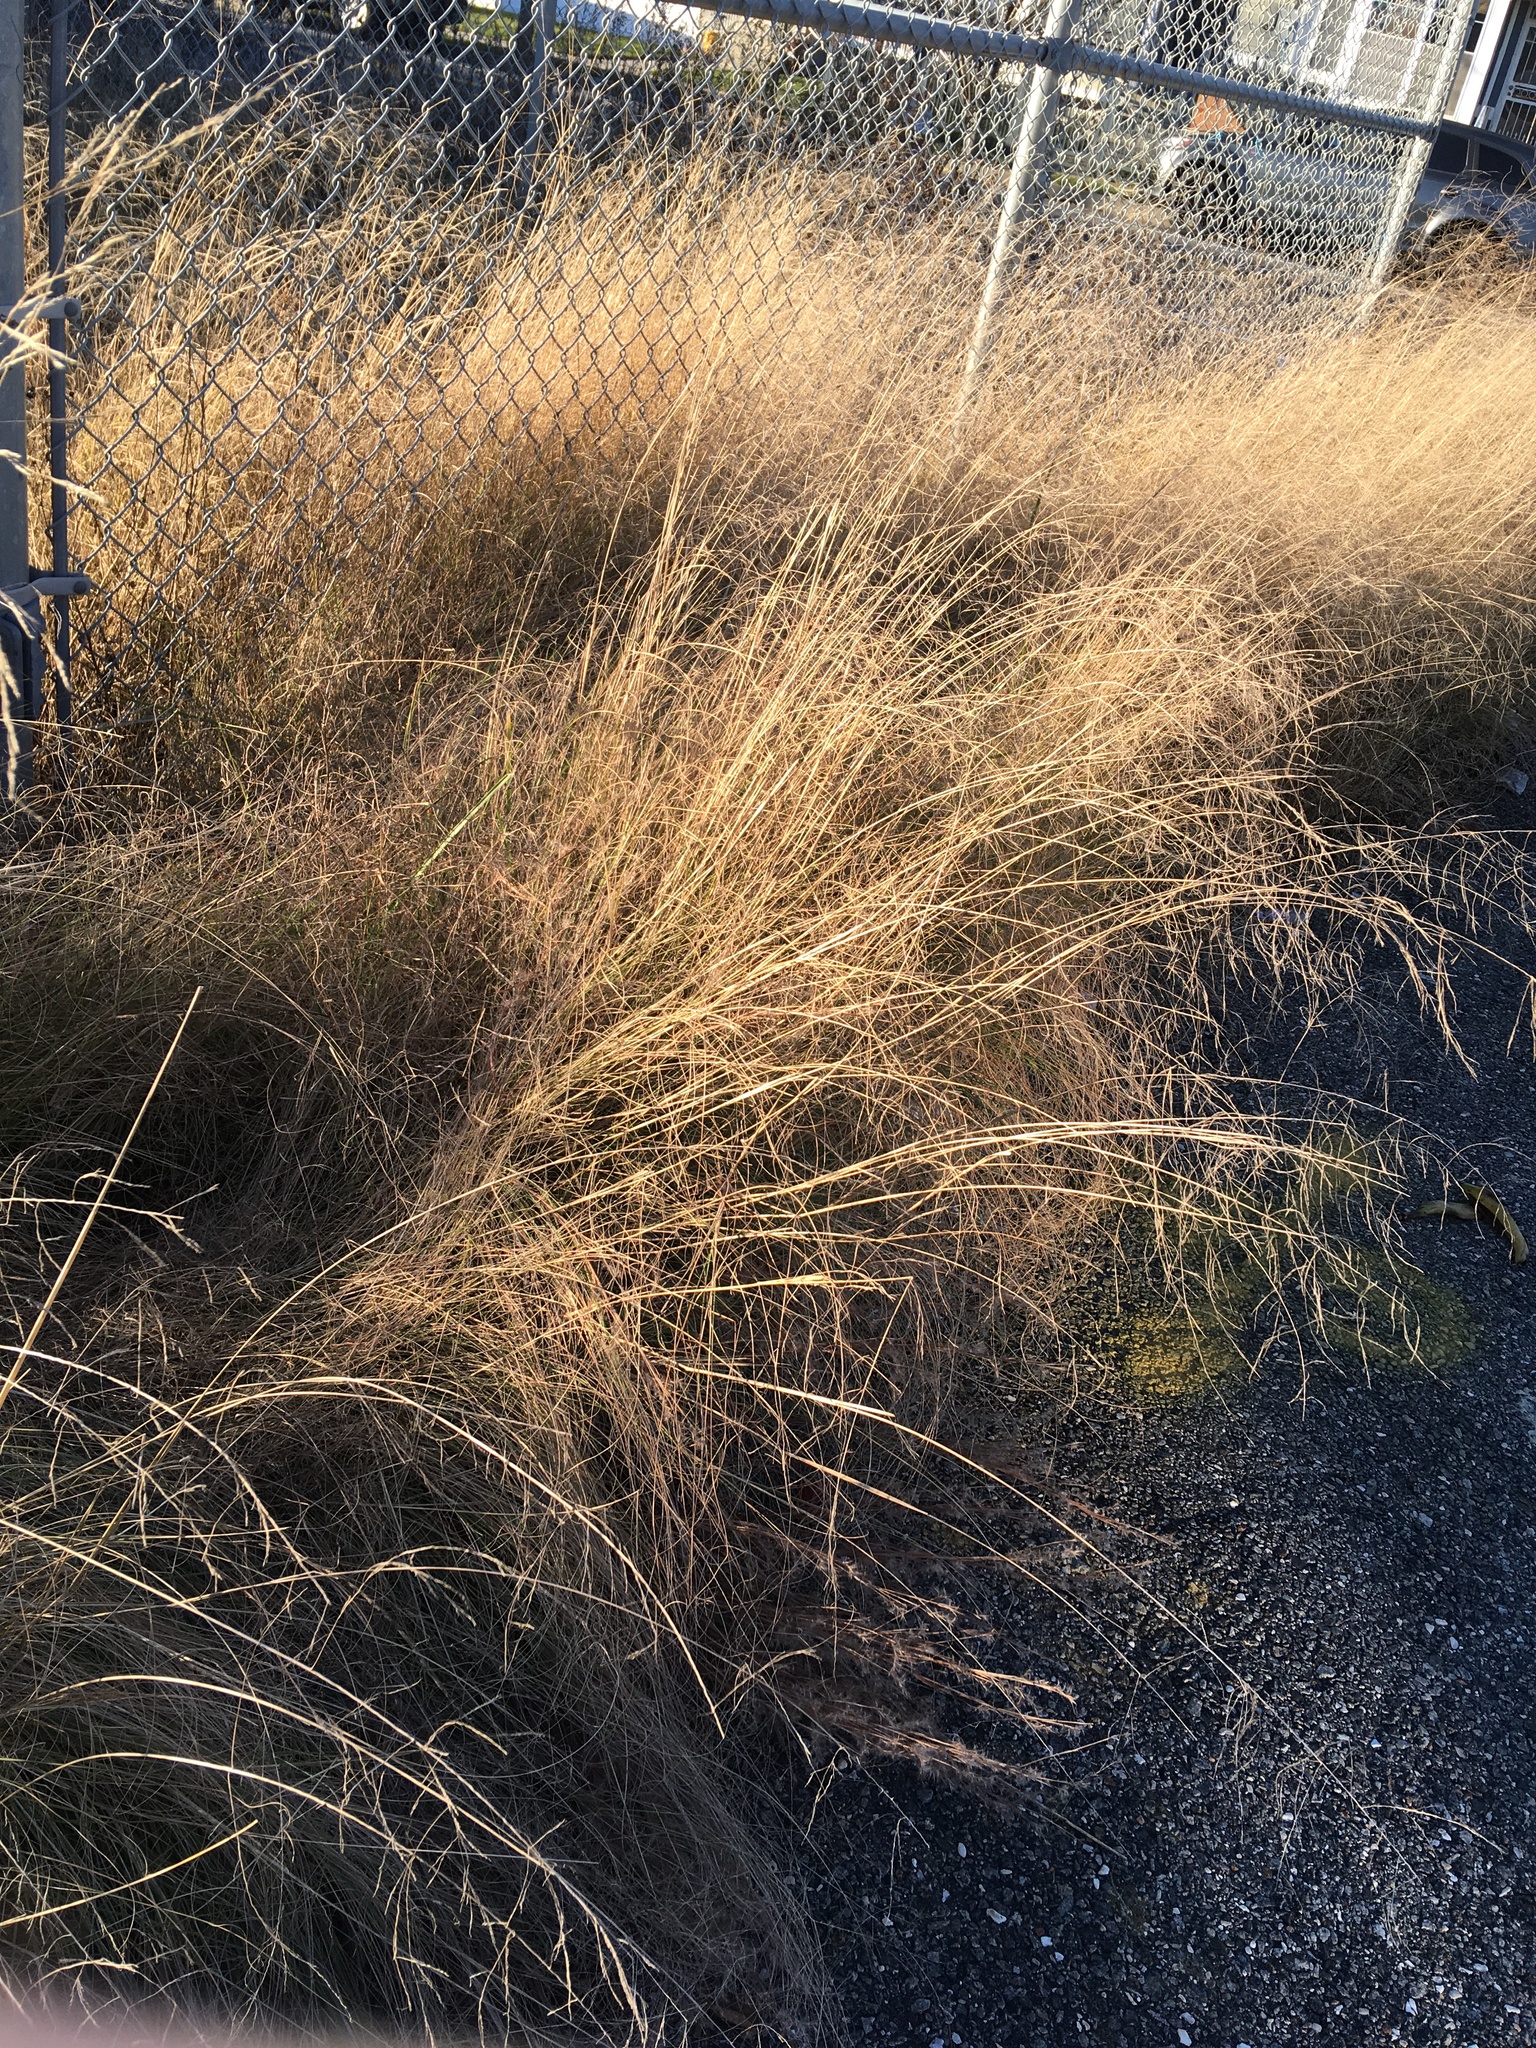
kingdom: Plantae
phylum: Tracheophyta
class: Liliopsida
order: Poales
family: Poaceae
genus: Eragrostis
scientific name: Eragrostis curvula
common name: African love-grass
